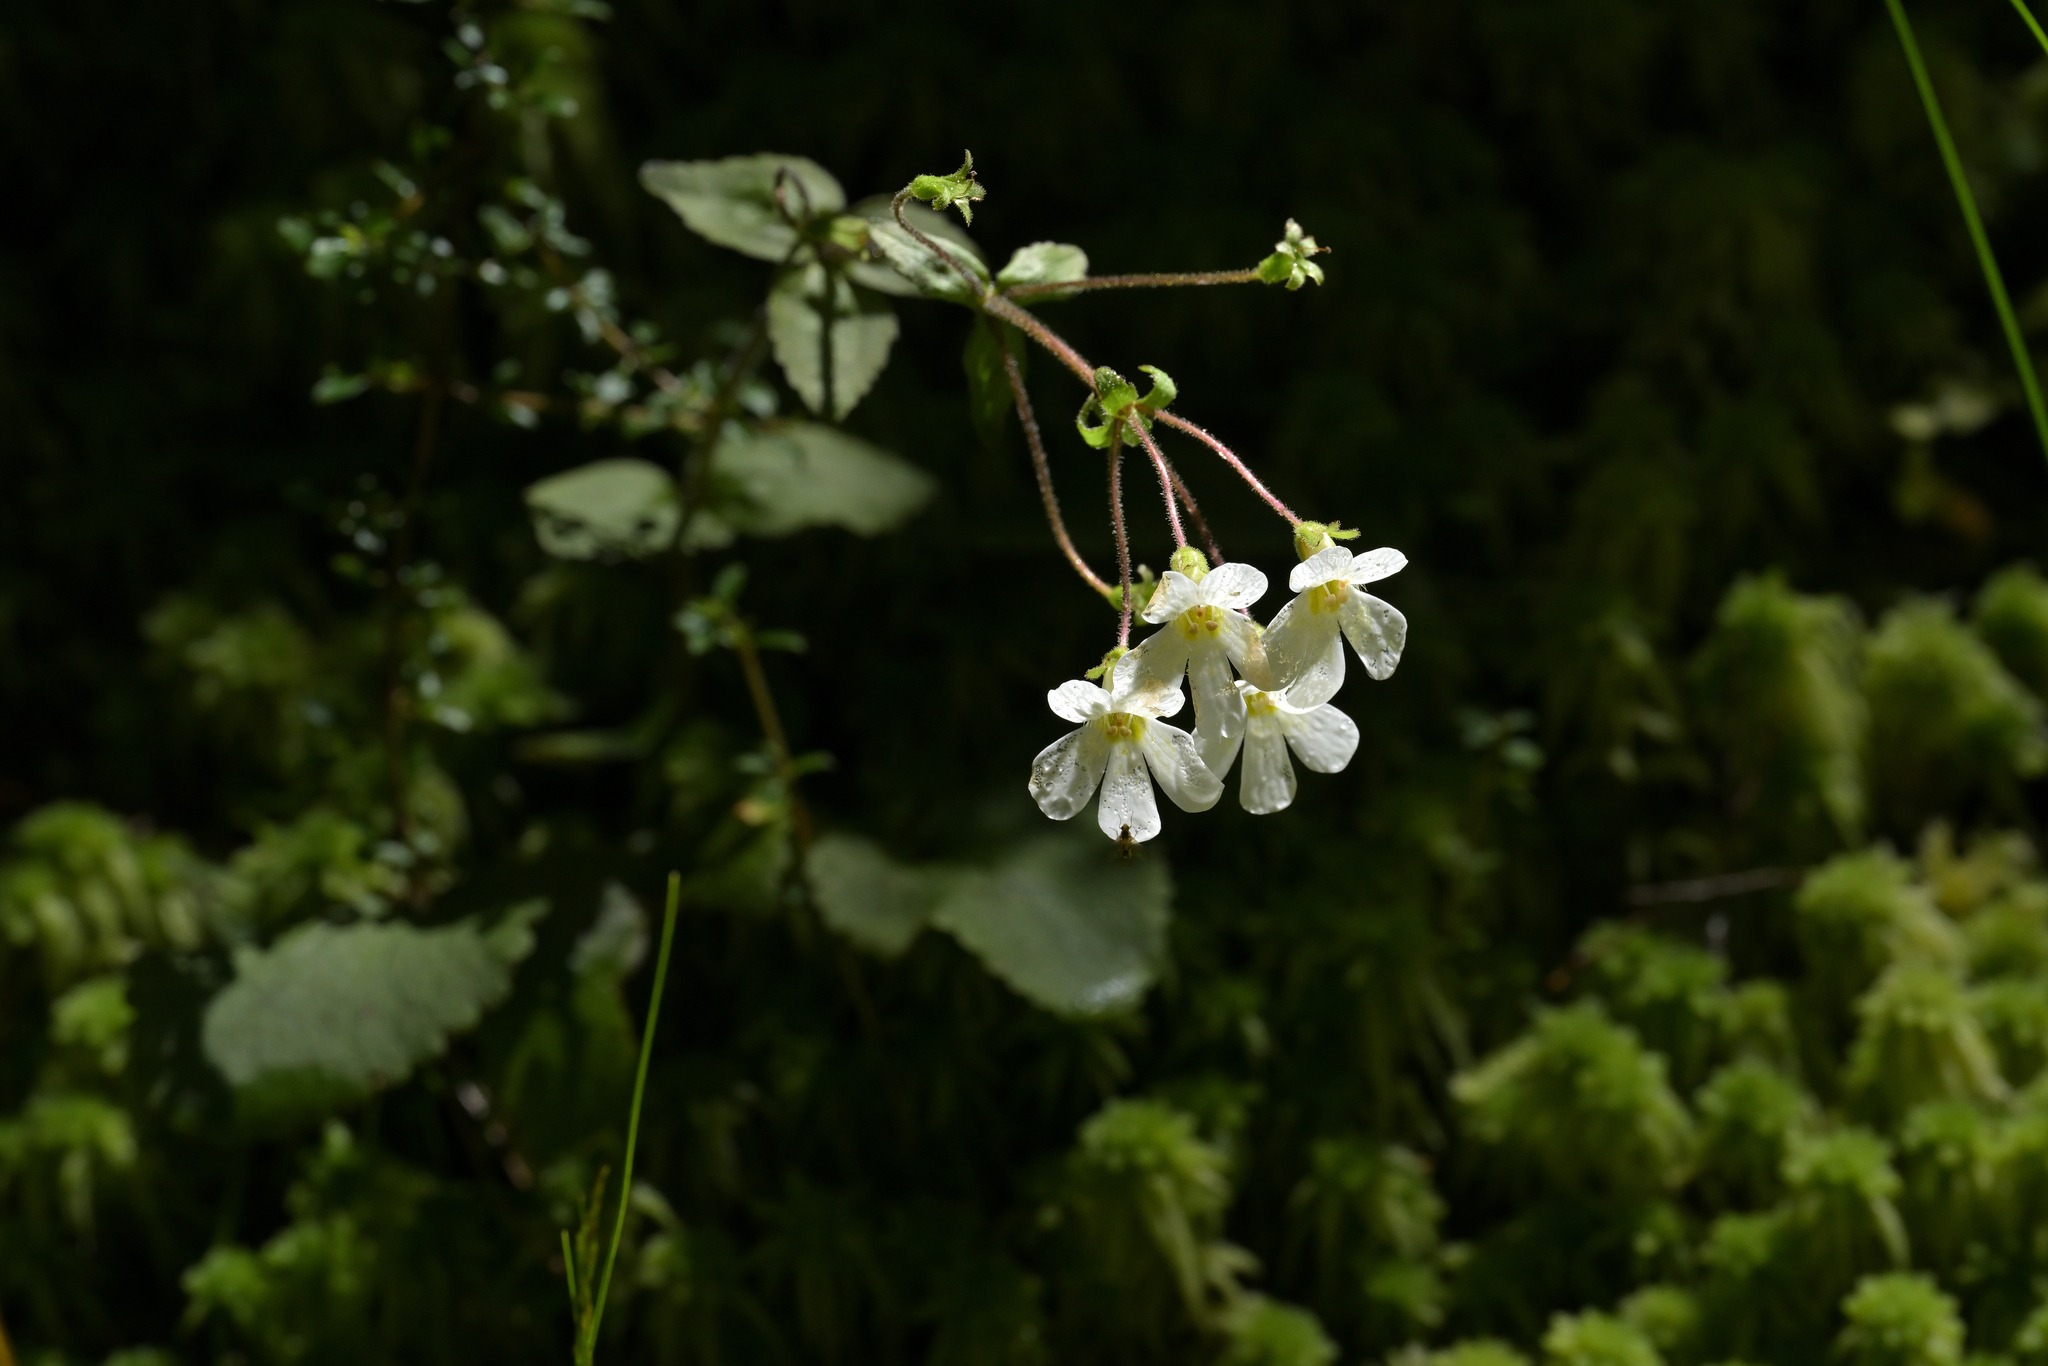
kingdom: Plantae
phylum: Tracheophyta
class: Magnoliopsida
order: Lamiales
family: Plantaginaceae
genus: Ourisia
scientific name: Ourisia macrophylla
